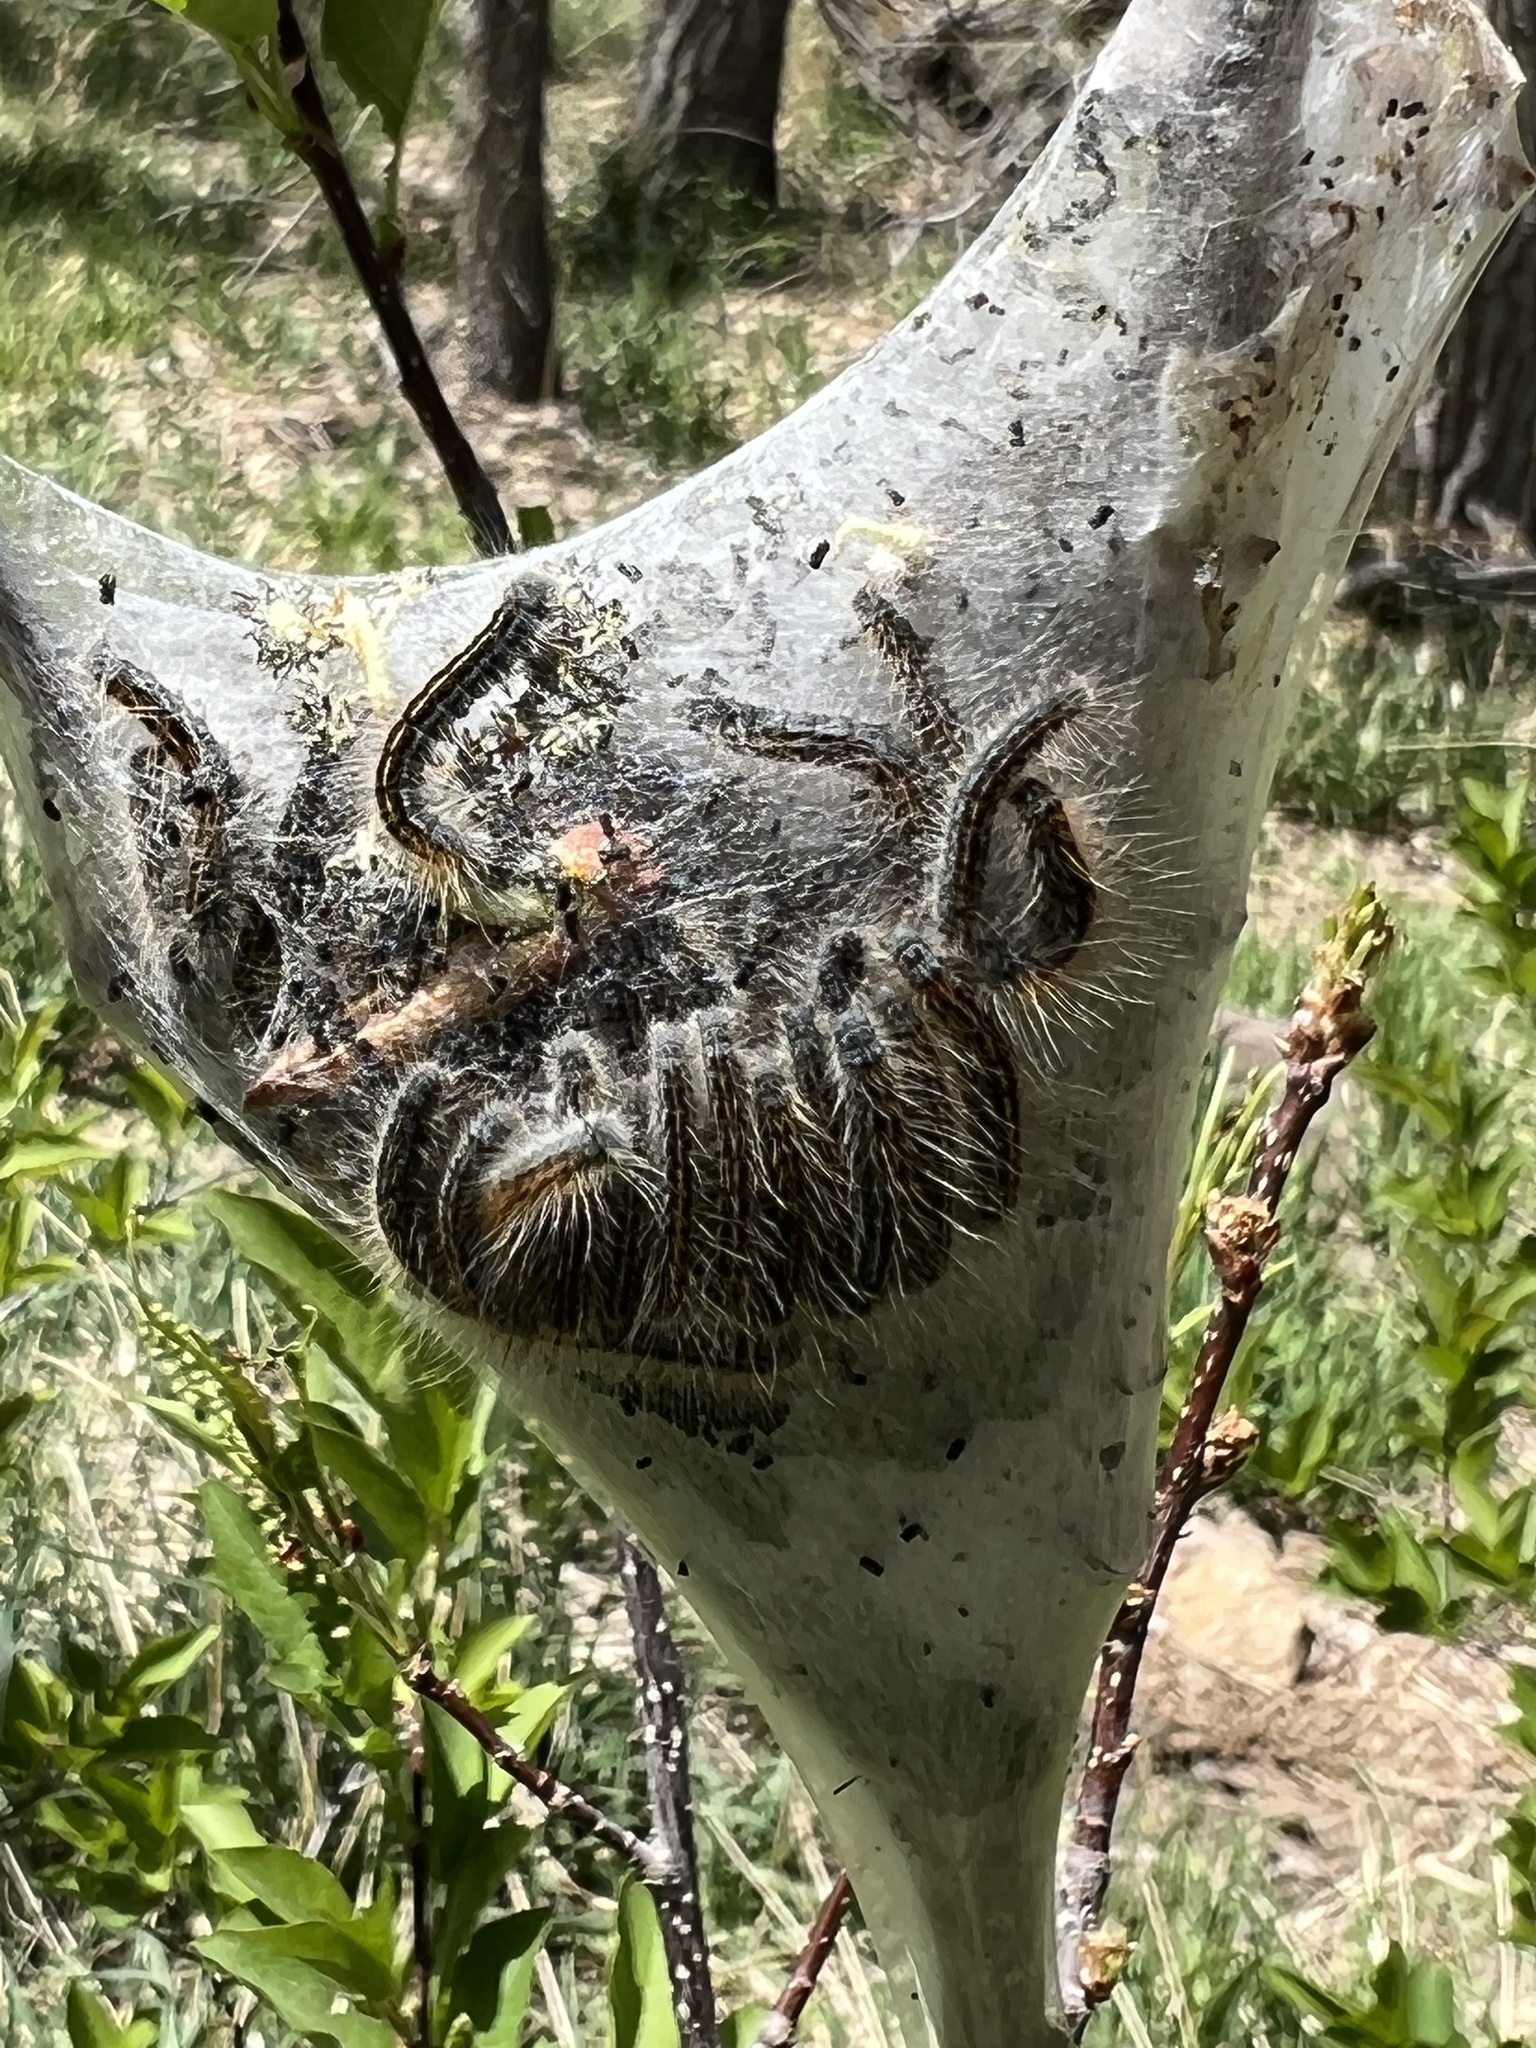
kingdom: Animalia
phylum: Arthropoda
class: Insecta
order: Lepidoptera
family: Lasiocampidae
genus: Malacosoma
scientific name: Malacosoma californica
